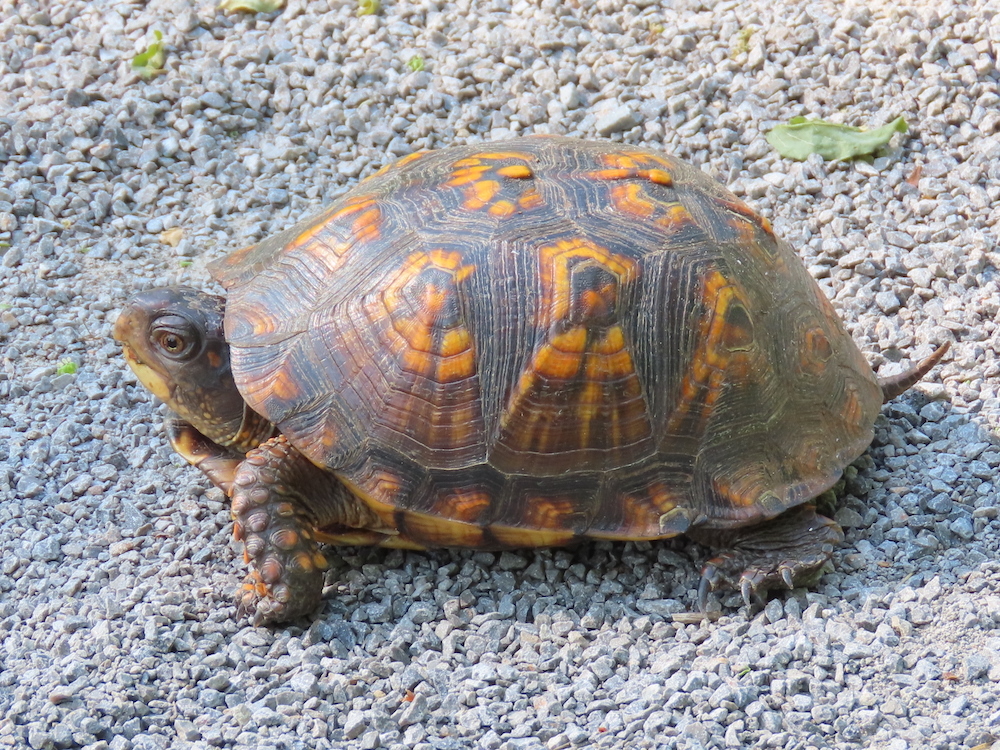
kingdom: Animalia
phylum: Chordata
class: Testudines
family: Emydidae
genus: Terrapene
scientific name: Terrapene carolina
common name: Common box turtle
